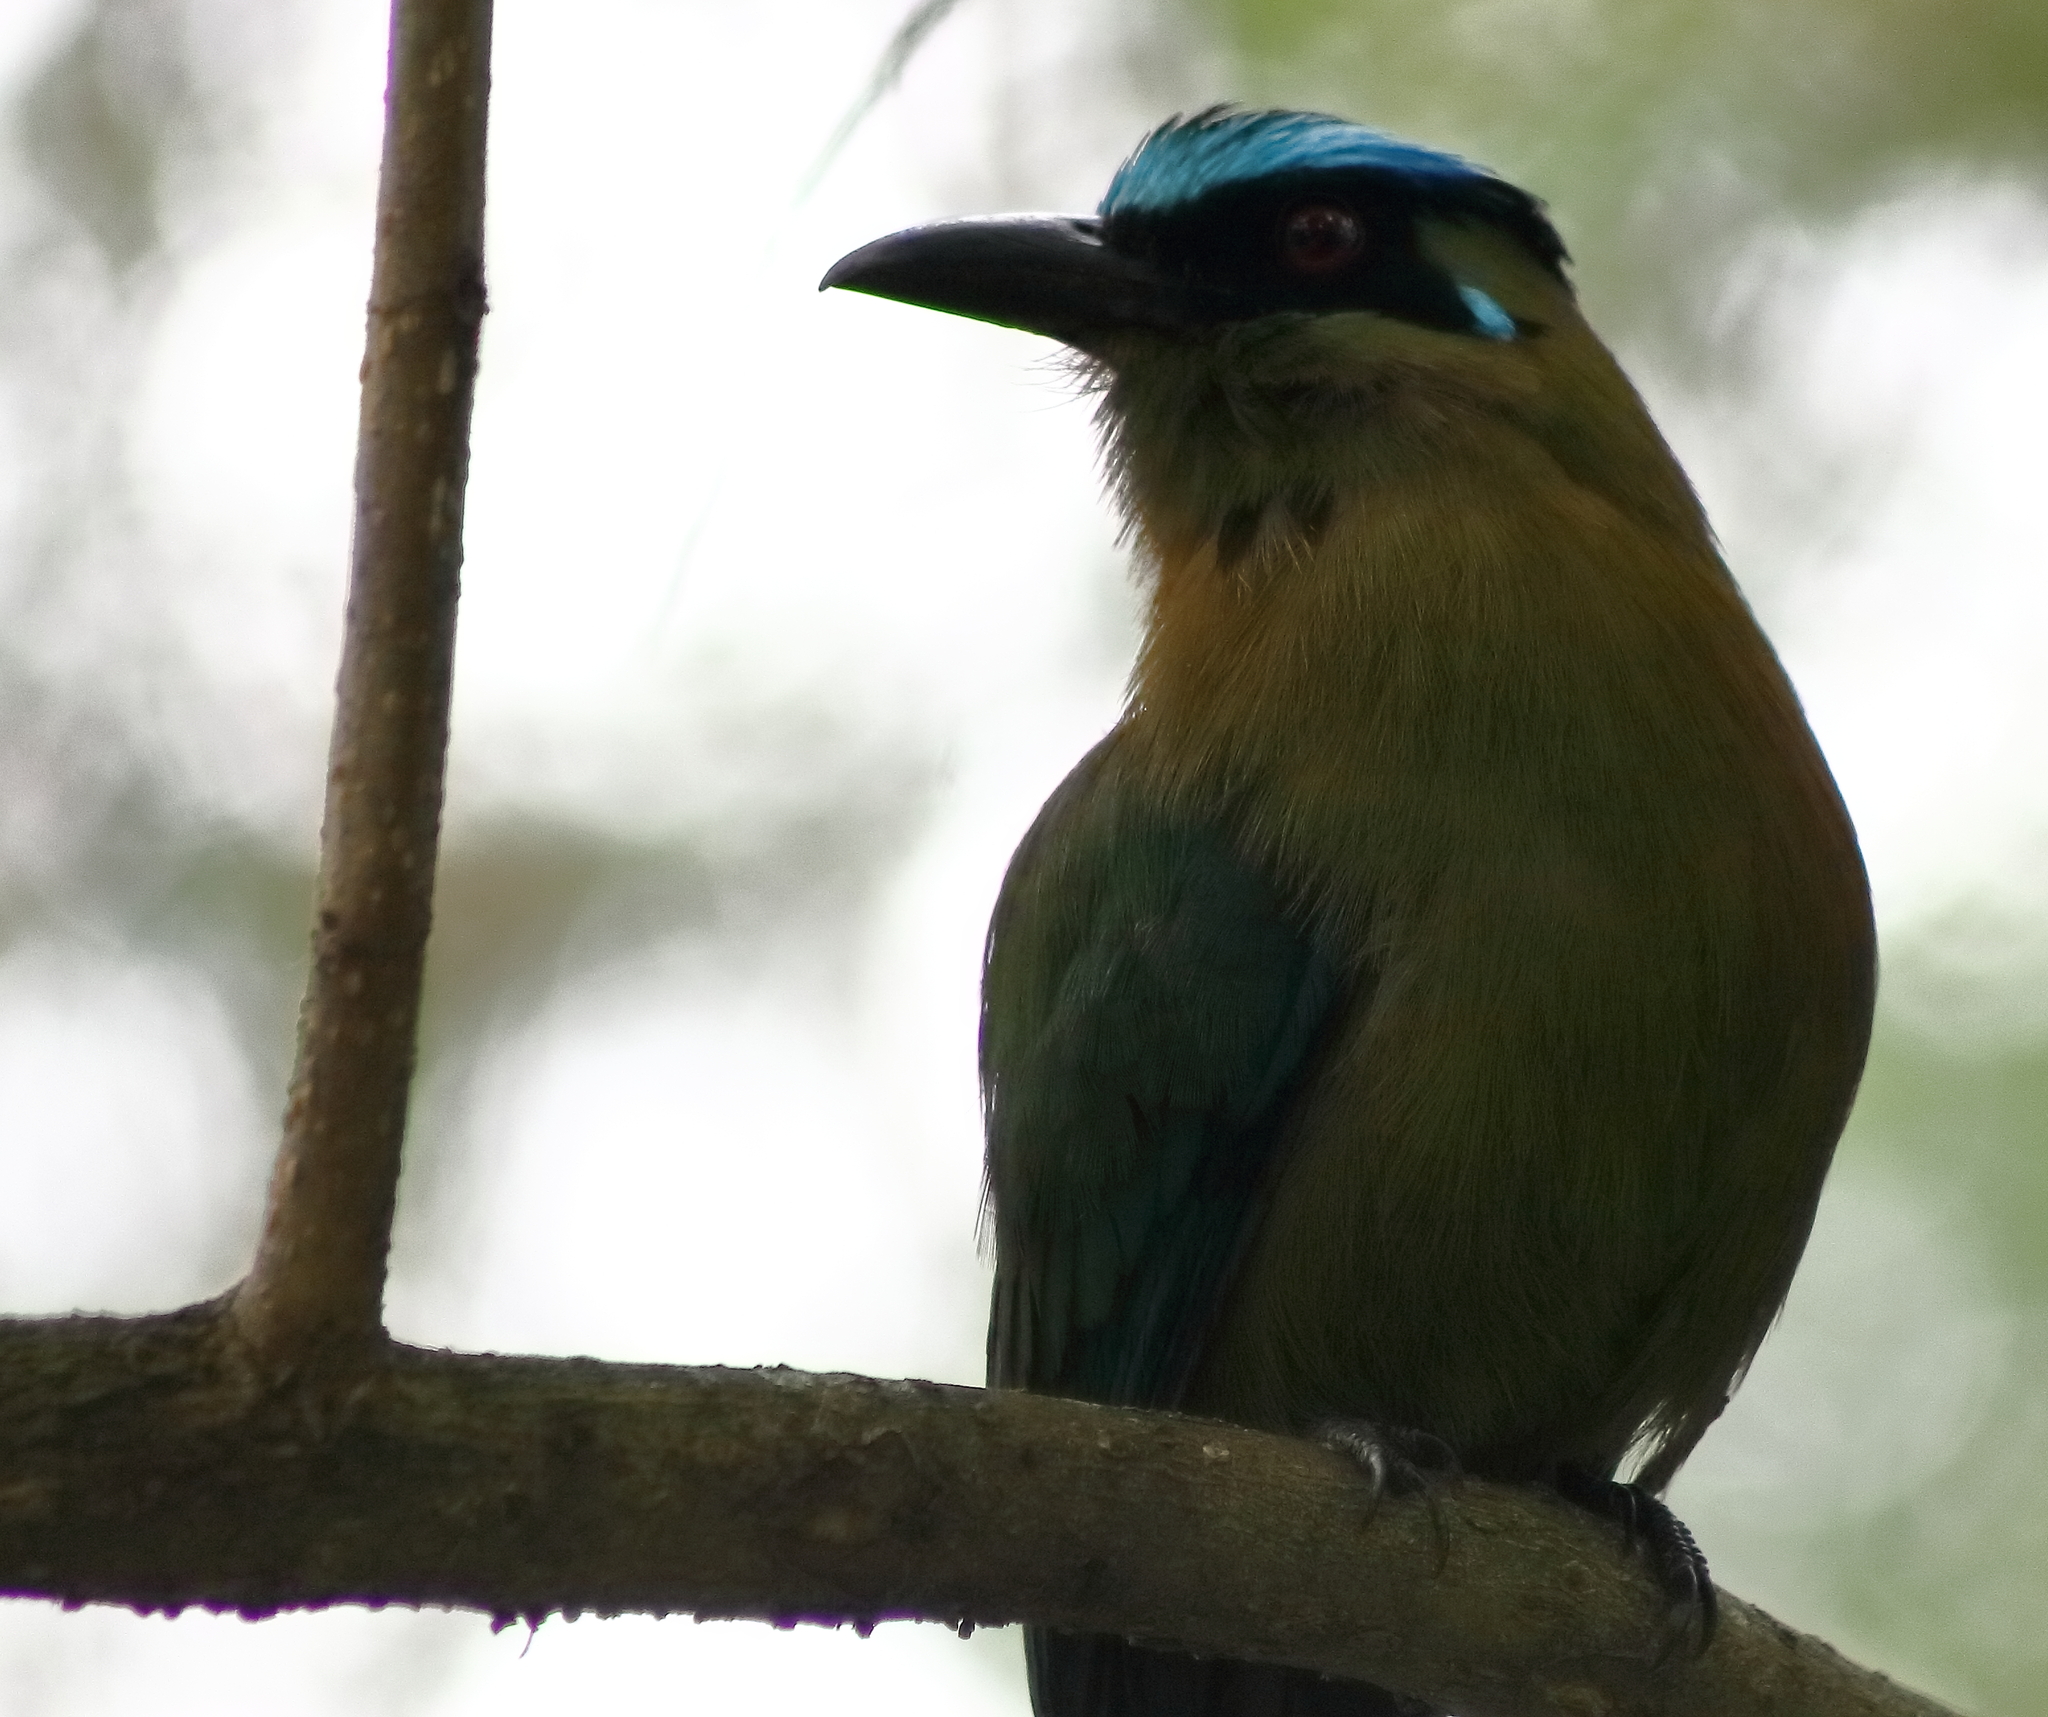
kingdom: Animalia
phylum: Chordata
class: Aves
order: Coraciiformes
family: Momotidae
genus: Momotus
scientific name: Momotus aequatorialis
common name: Andean motmot
